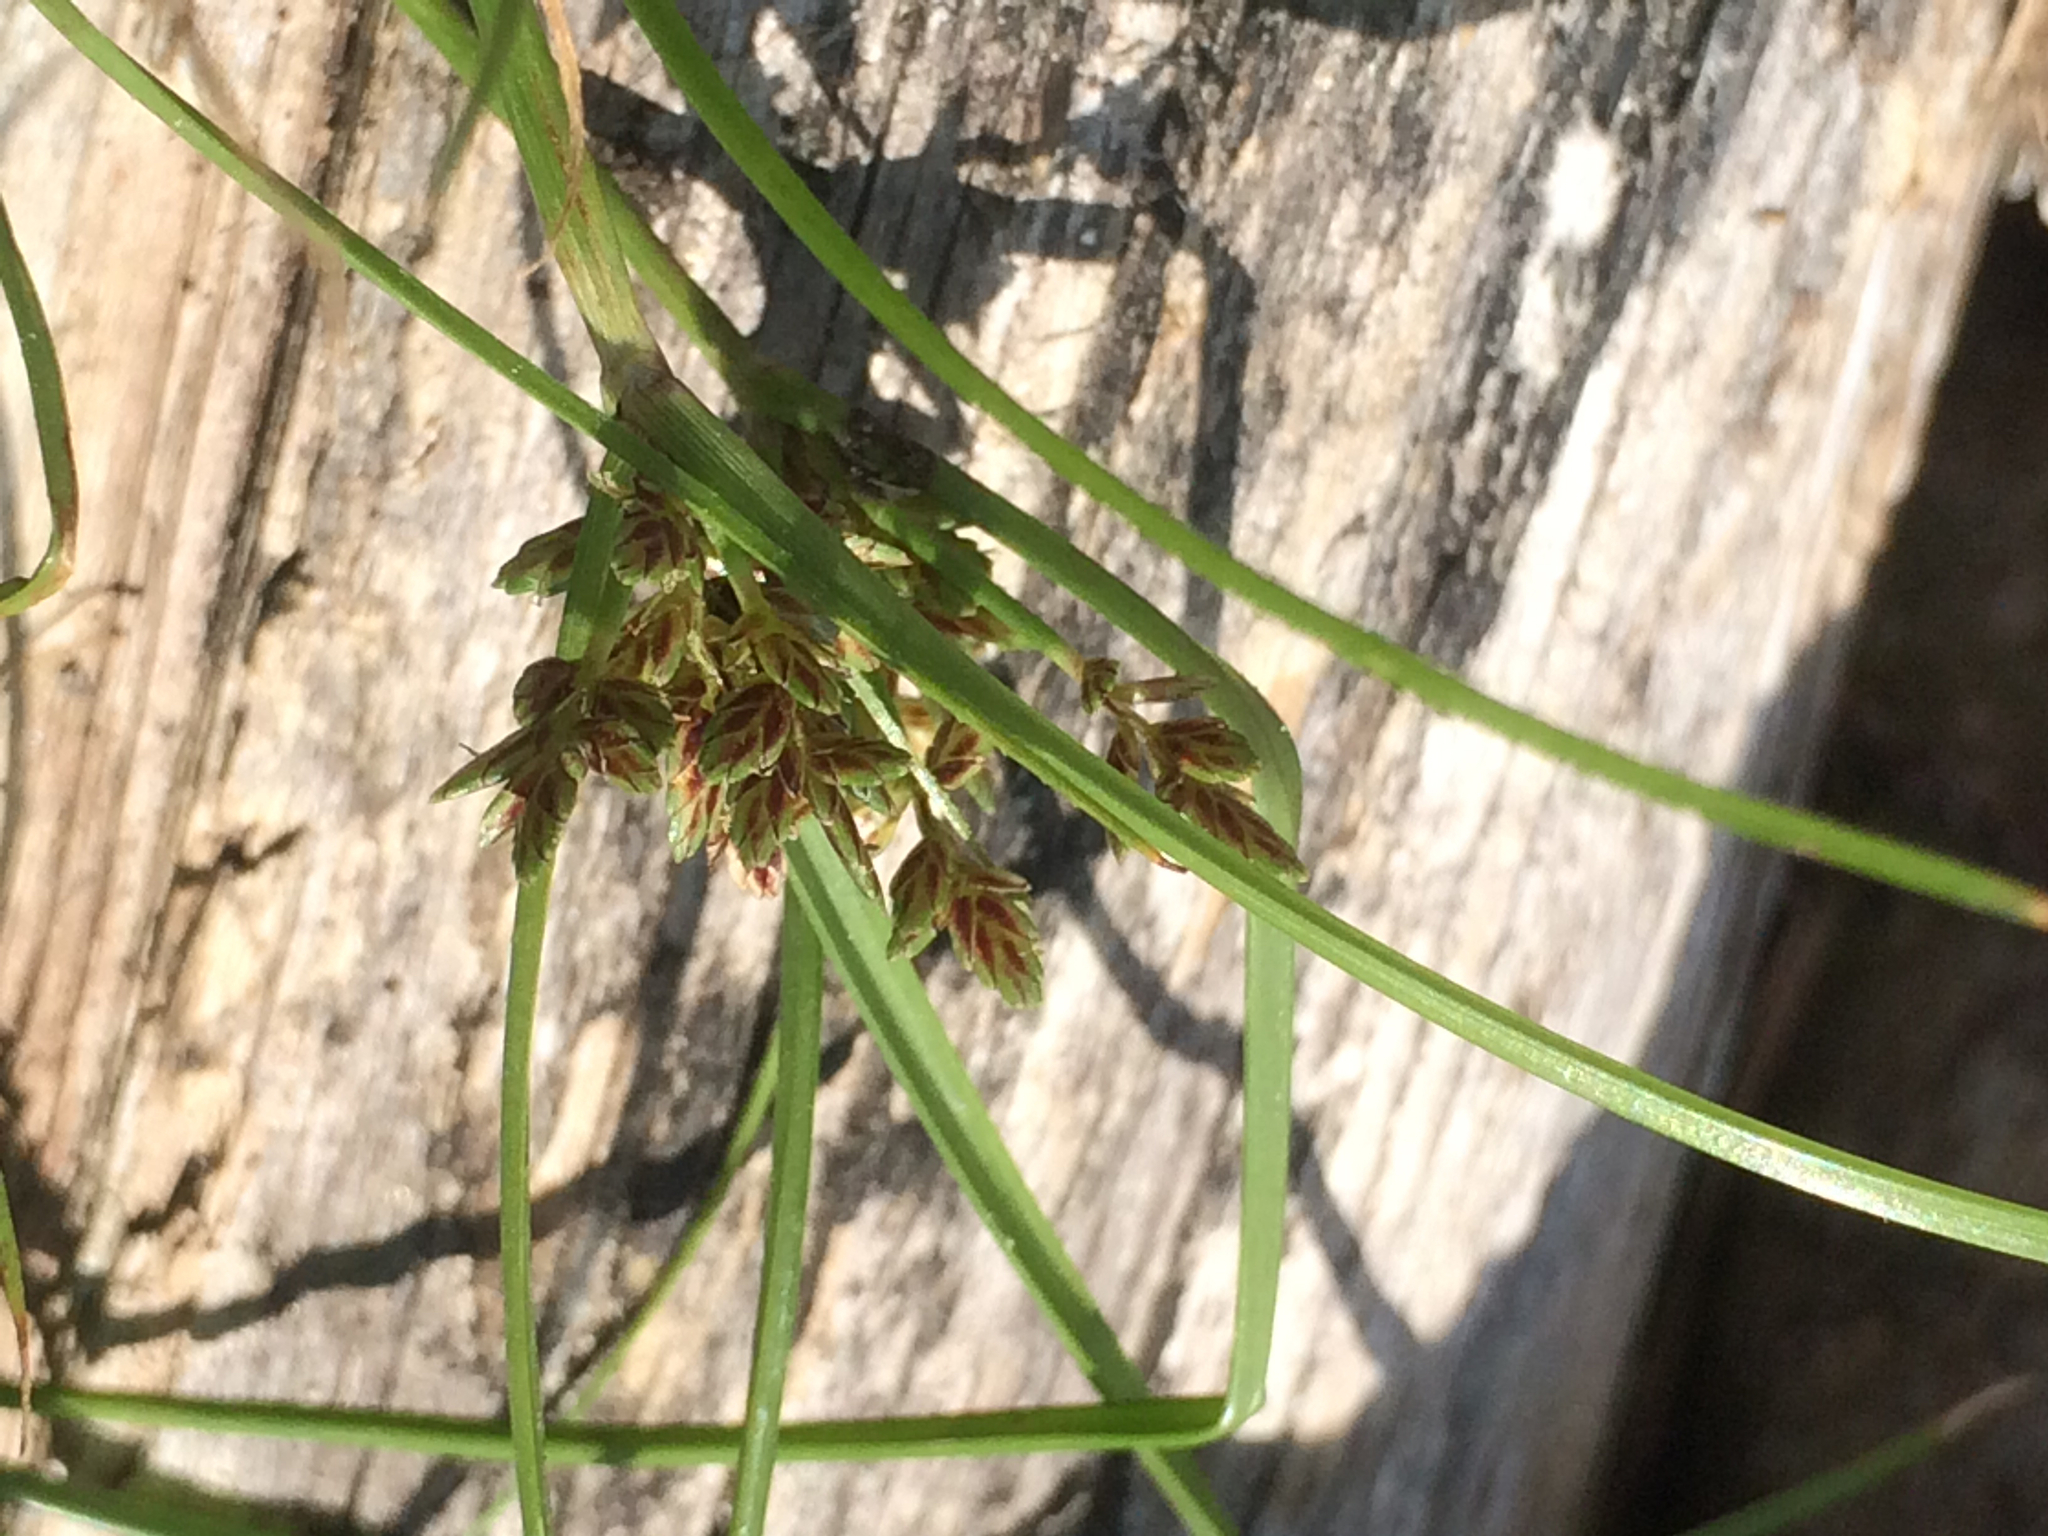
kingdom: Plantae
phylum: Tracheophyta
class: Liliopsida
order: Poales
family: Cyperaceae
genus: Cyperus
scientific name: Cyperus bipartitus
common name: Brook flatsedge
